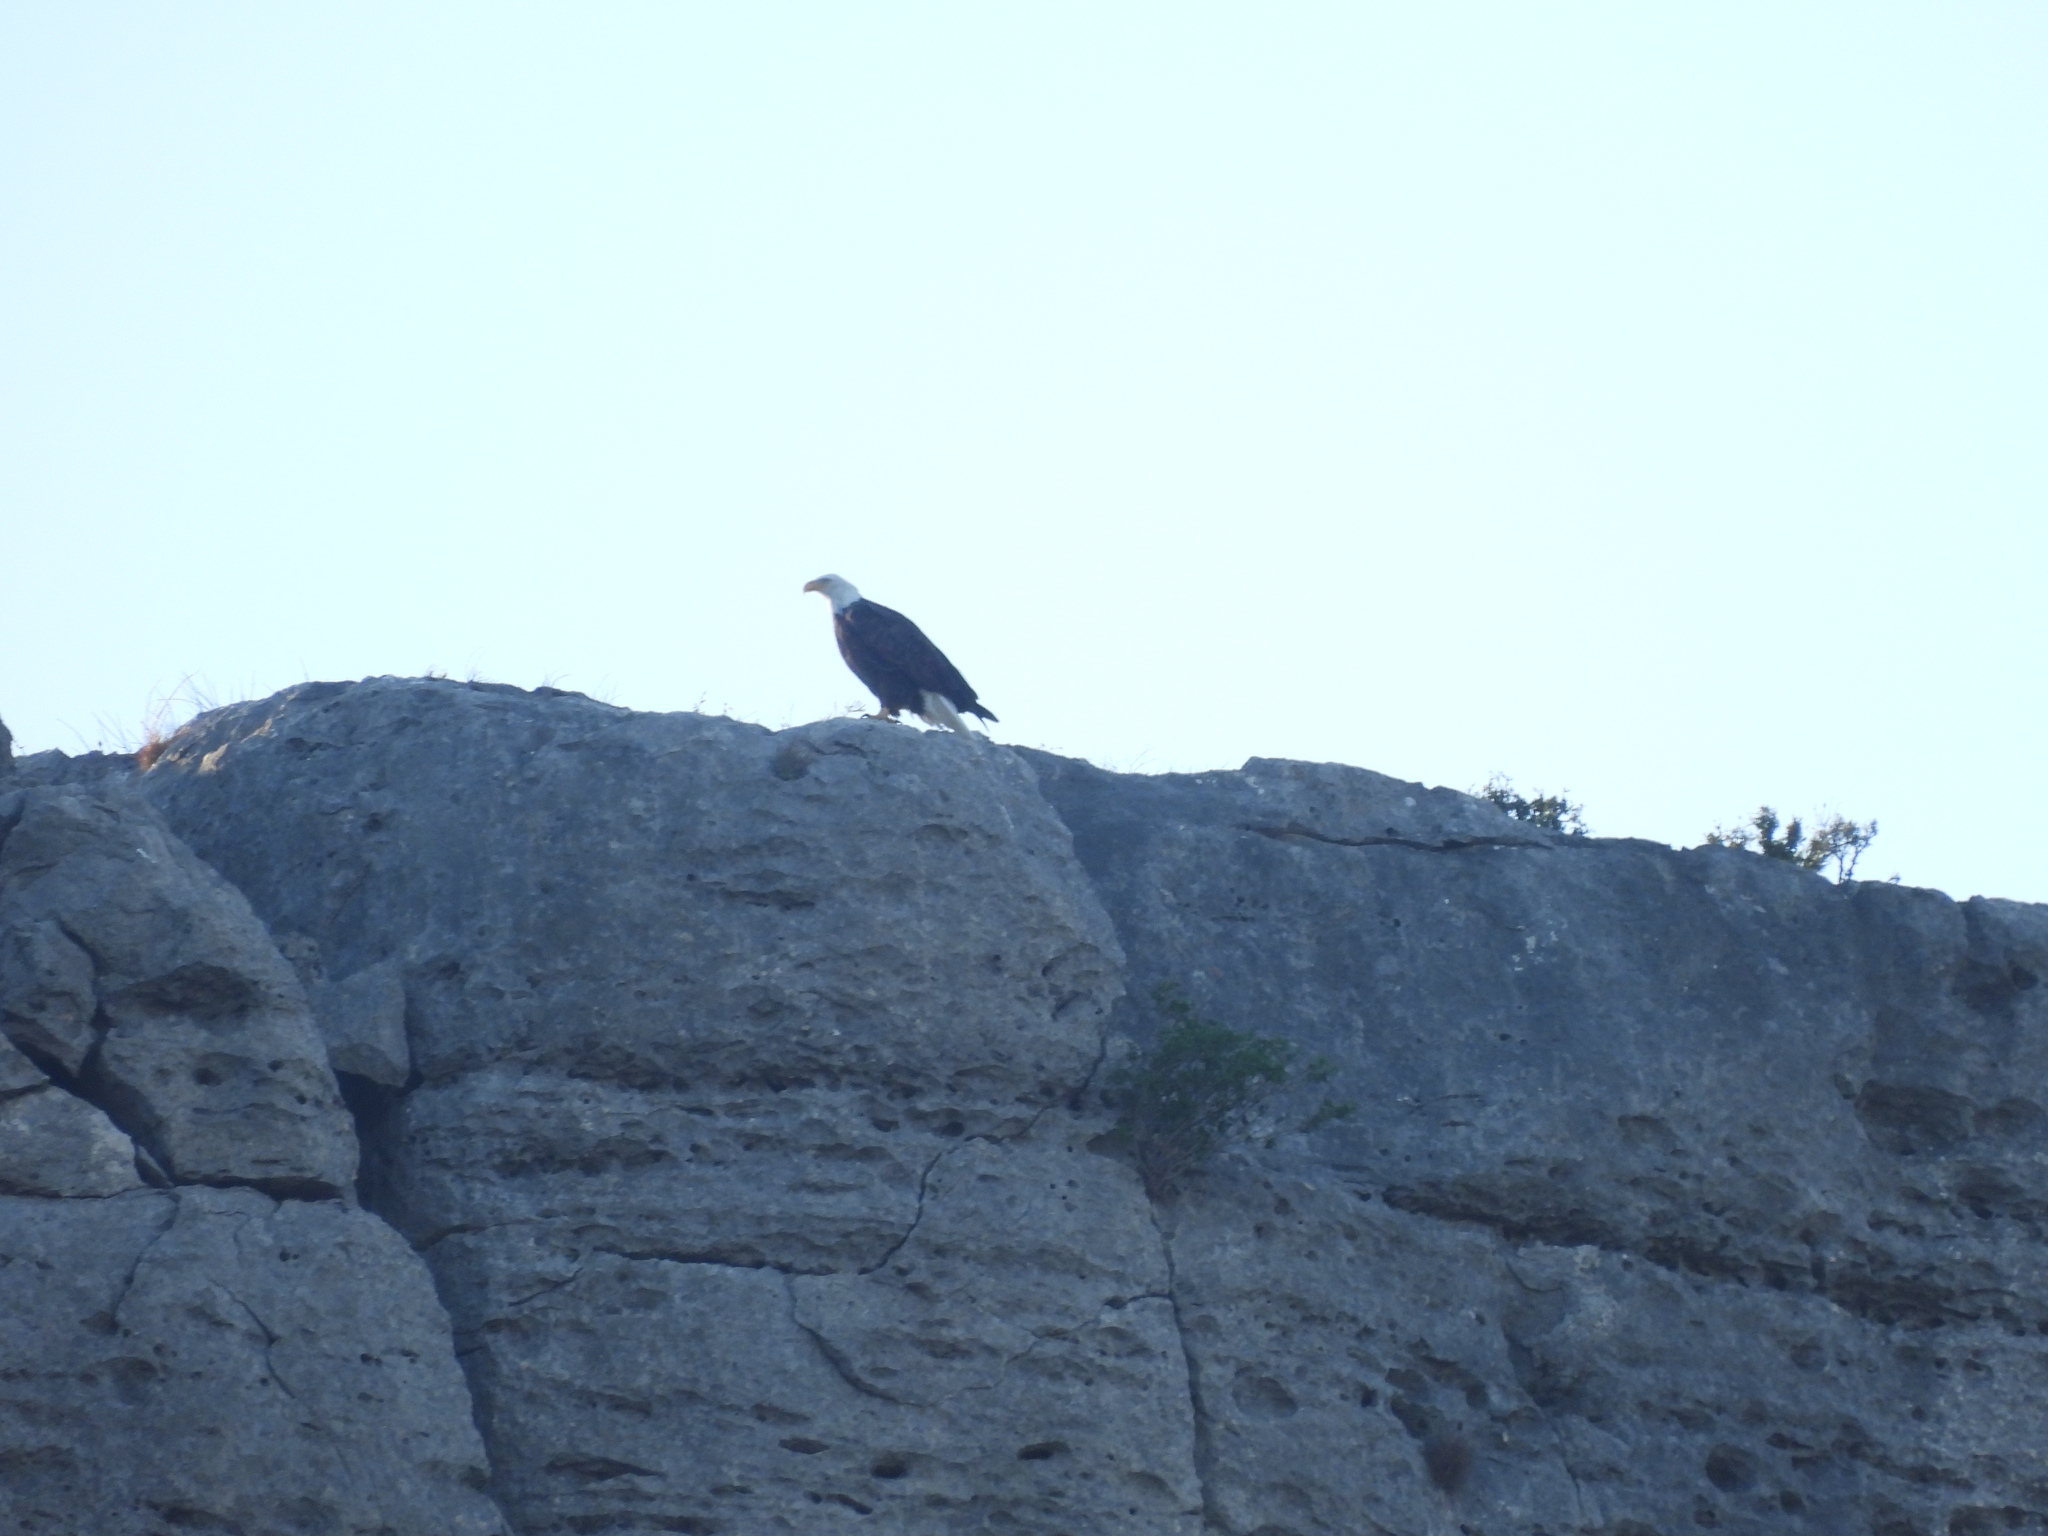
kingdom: Animalia
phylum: Chordata
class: Aves
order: Accipitriformes
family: Accipitridae
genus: Haliaeetus
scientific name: Haliaeetus leucocephalus
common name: Bald eagle
